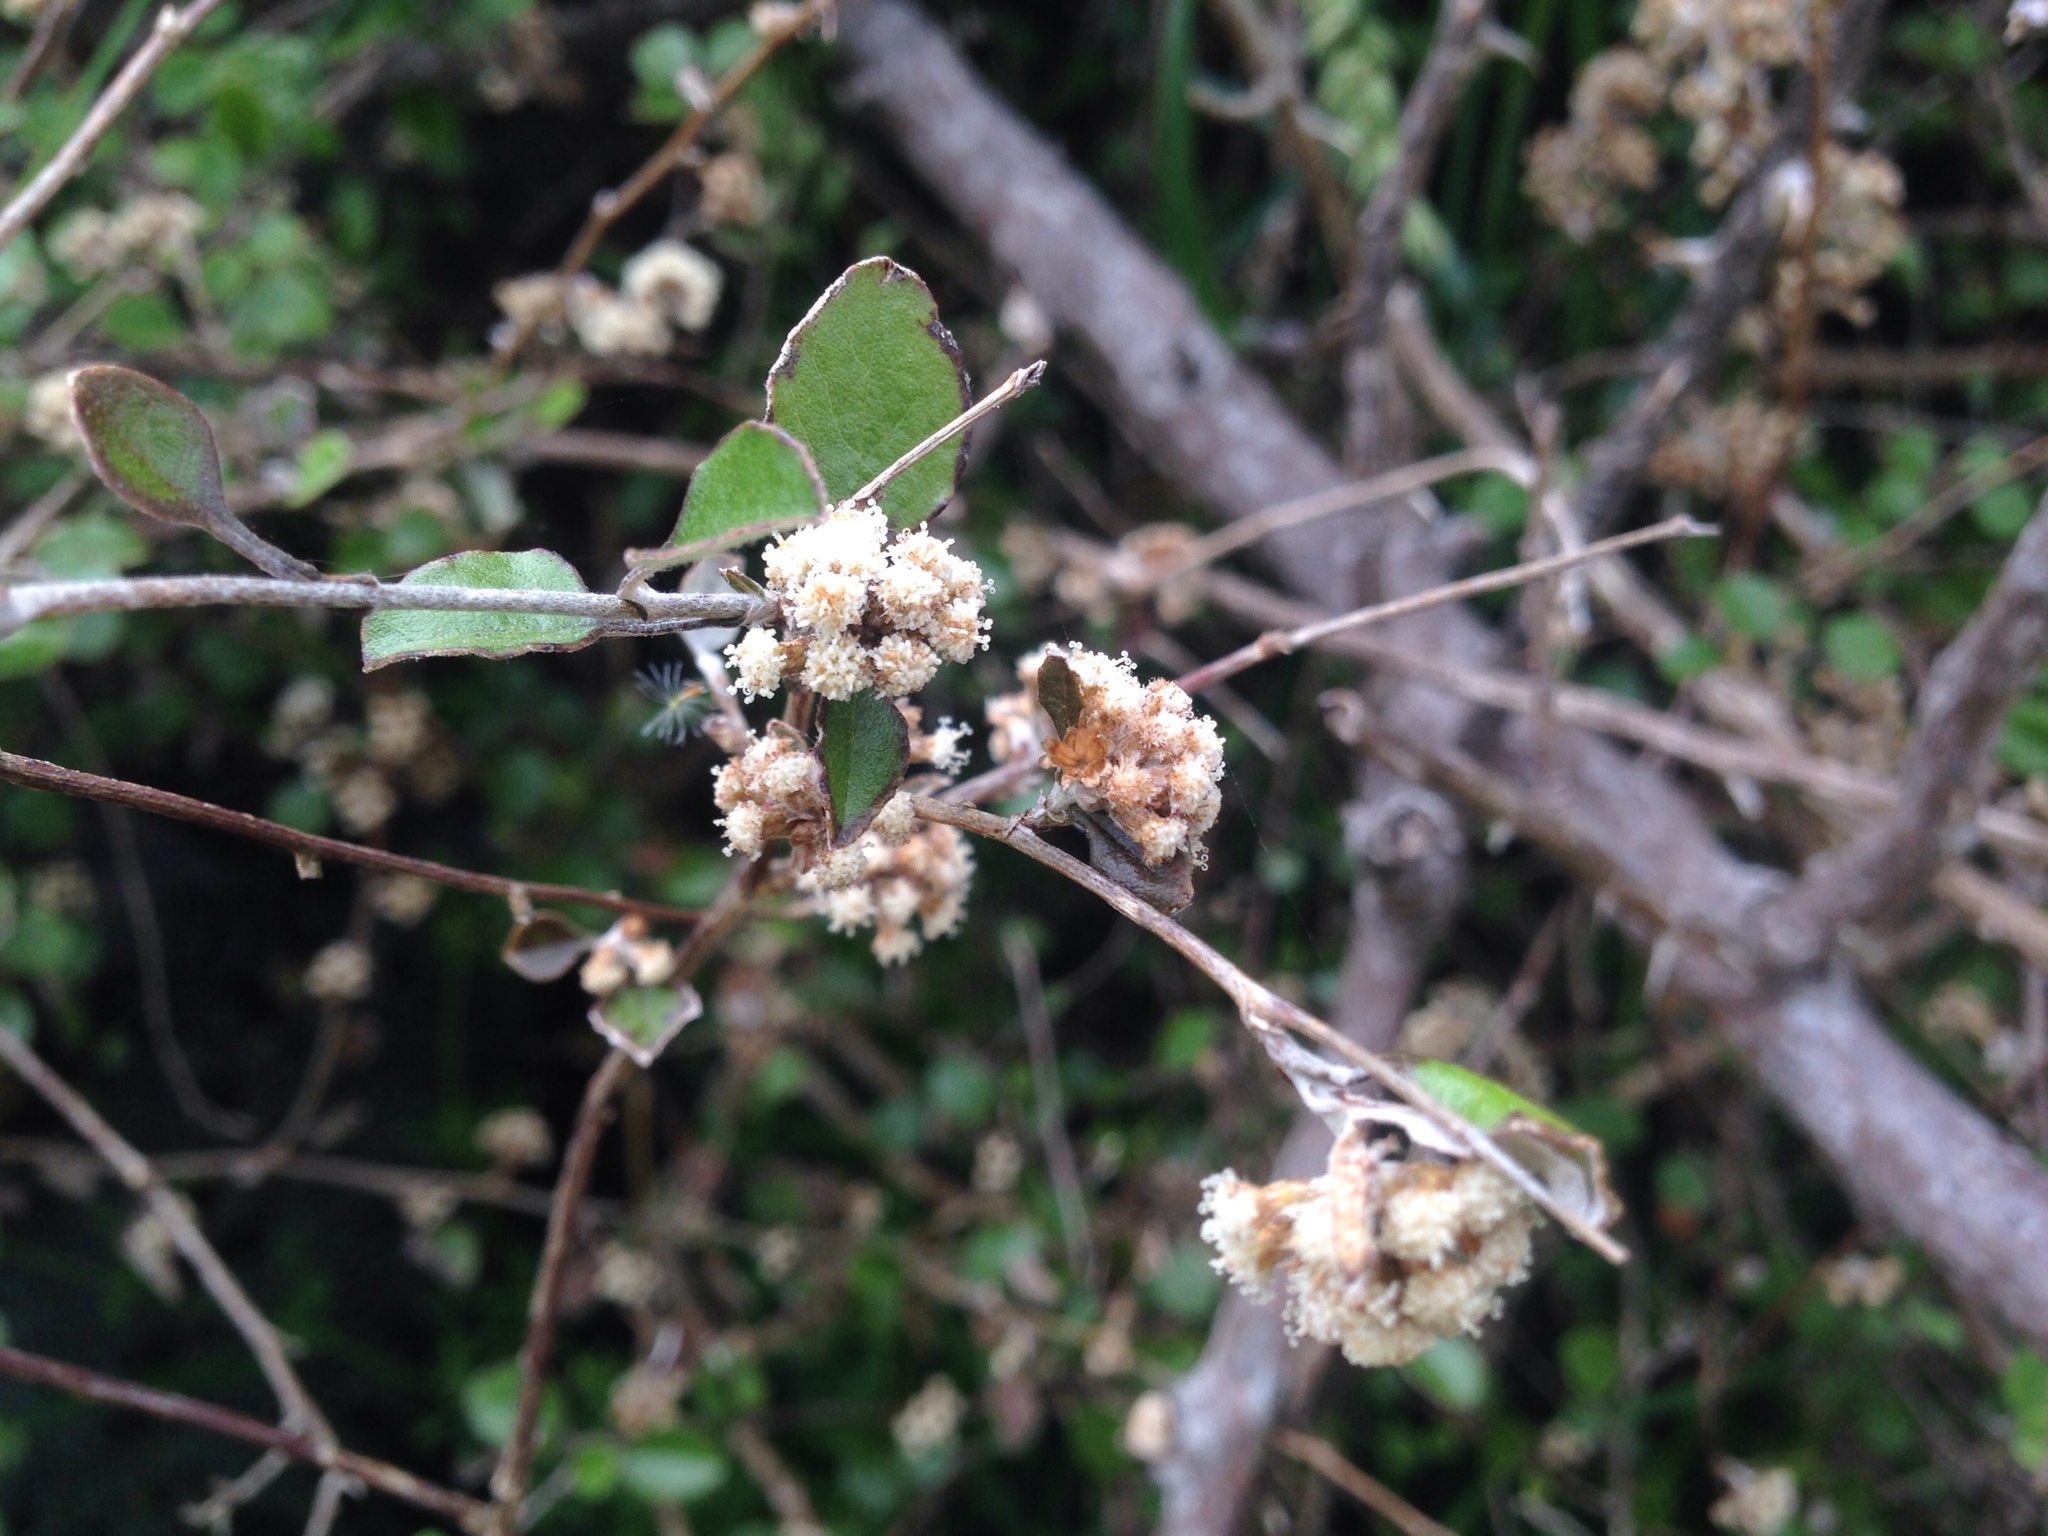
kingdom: Plantae
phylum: Tracheophyta
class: Magnoliopsida
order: Asterales
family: Asteraceae
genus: Ozothamnus
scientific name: Ozothamnus glomeratus
